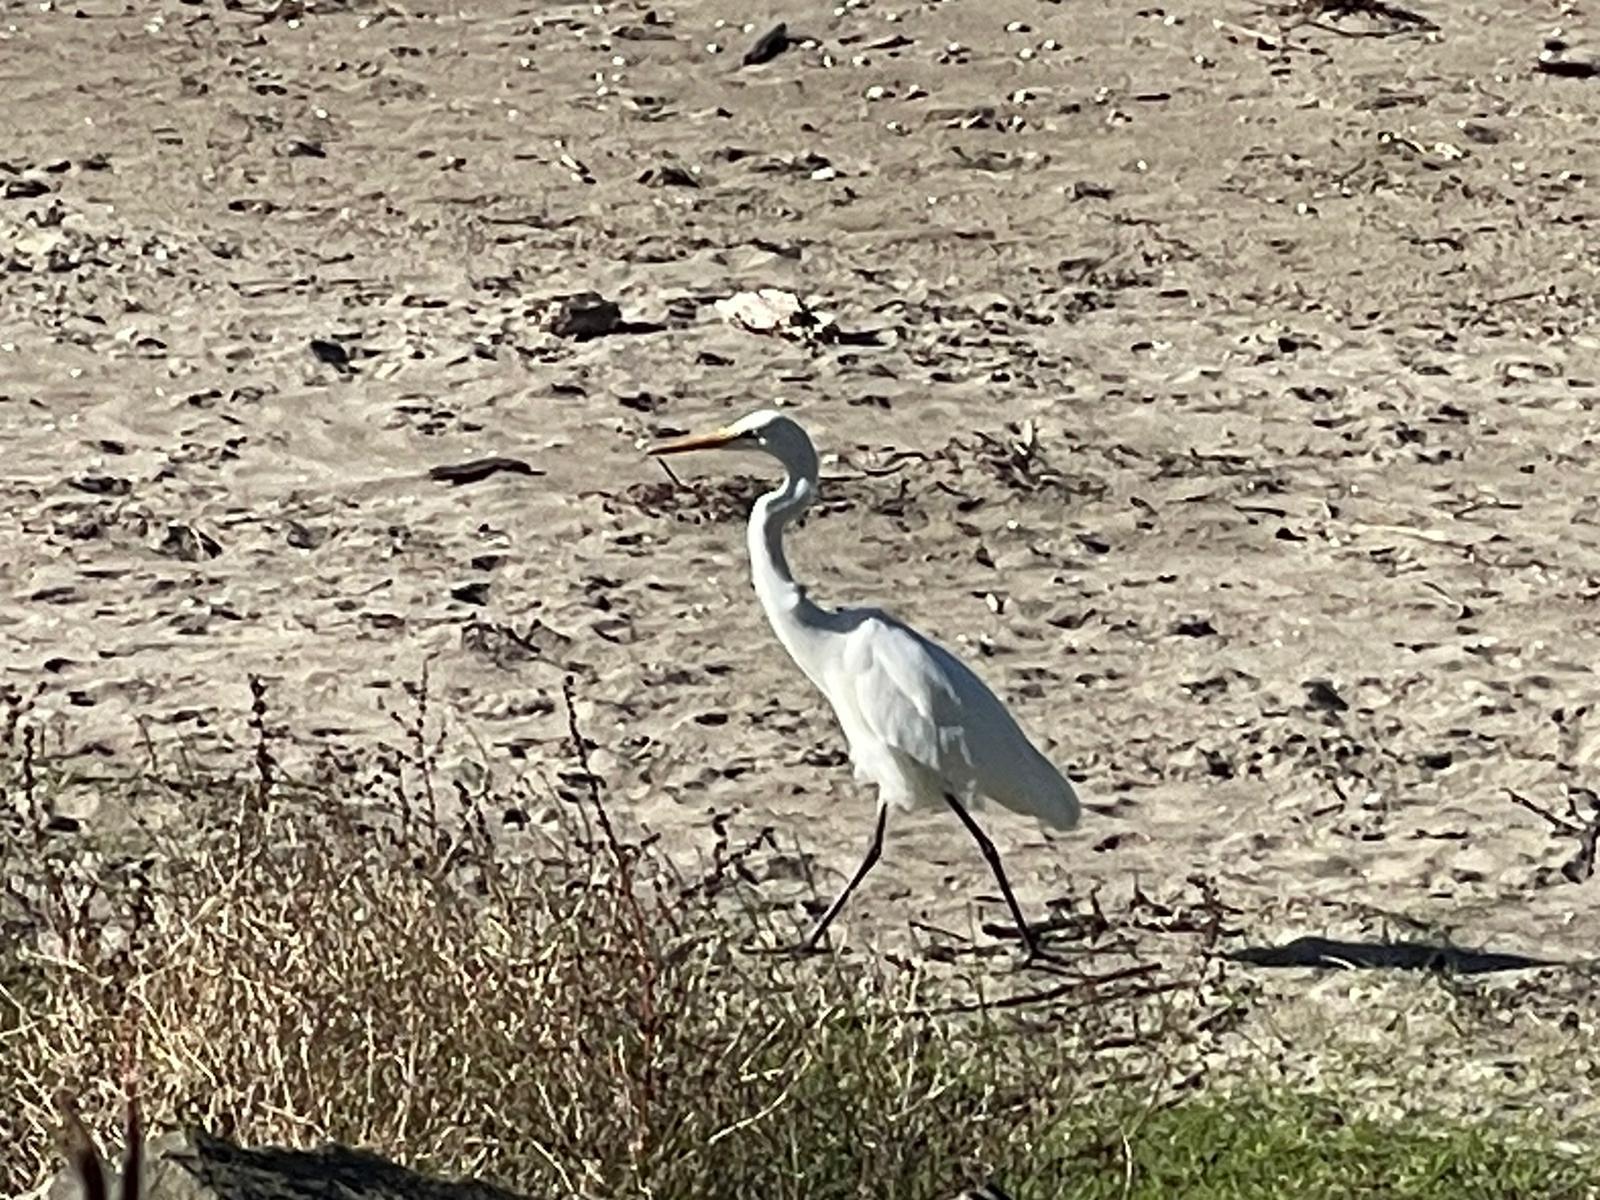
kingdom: Animalia
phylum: Chordata
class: Aves
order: Pelecaniformes
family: Ardeidae
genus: Ardea
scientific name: Ardea modesta
